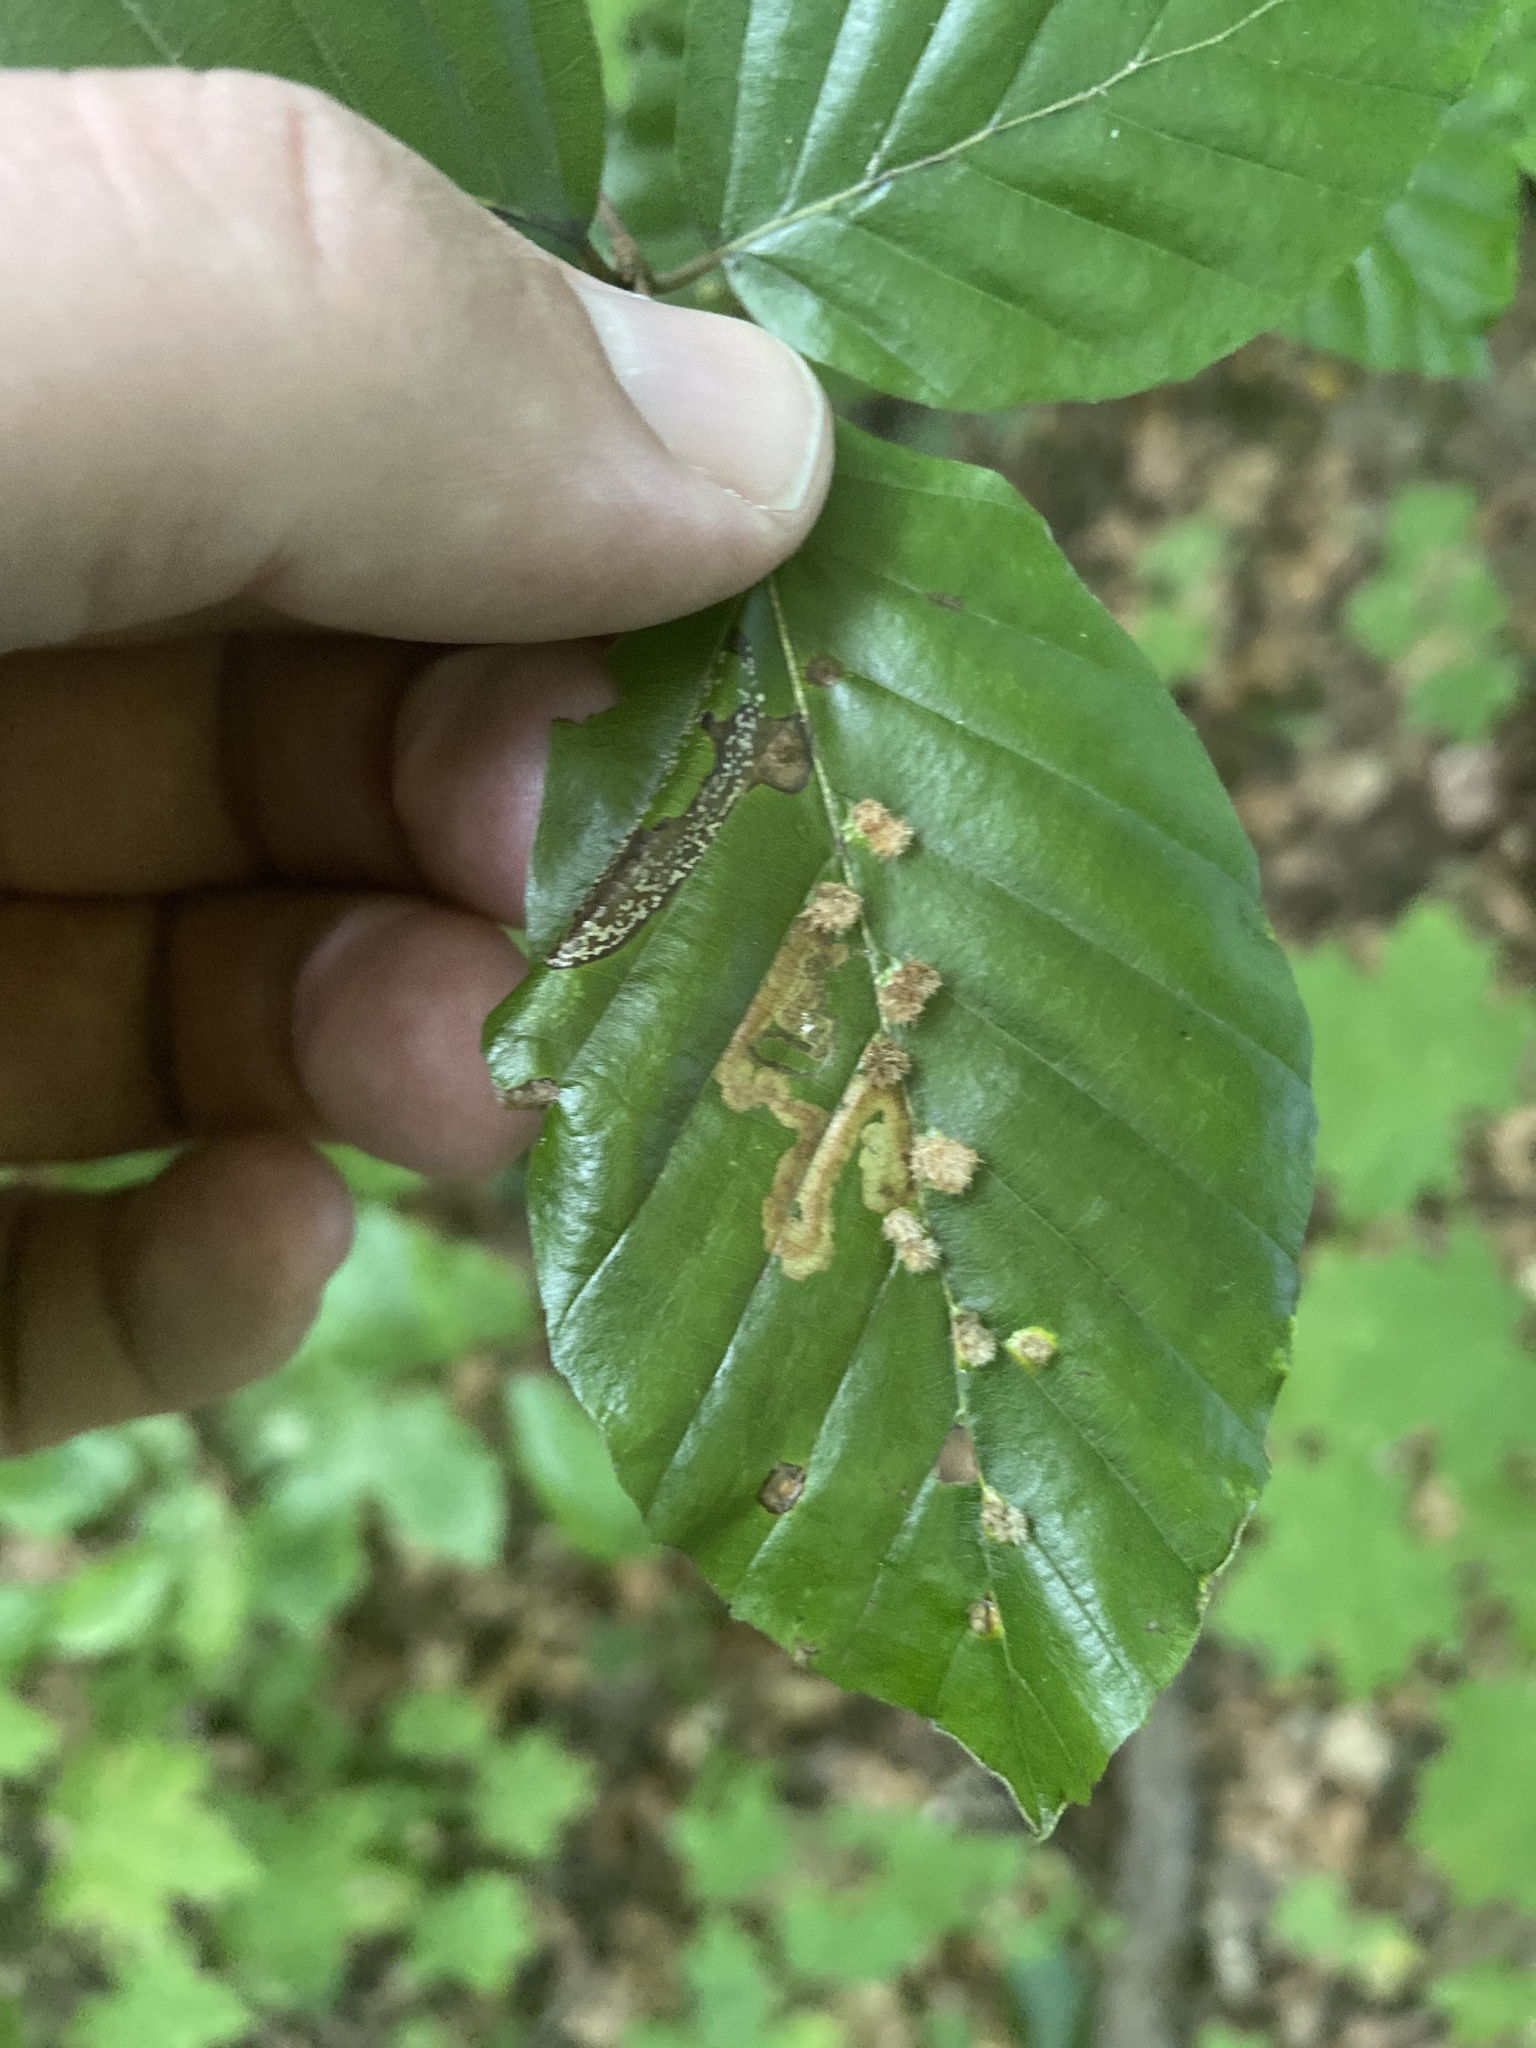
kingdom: Animalia
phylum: Arthropoda
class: Insecta
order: Diptera
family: Cecidomyiidae
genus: Hartigiola
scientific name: Hartigiola annulipes
